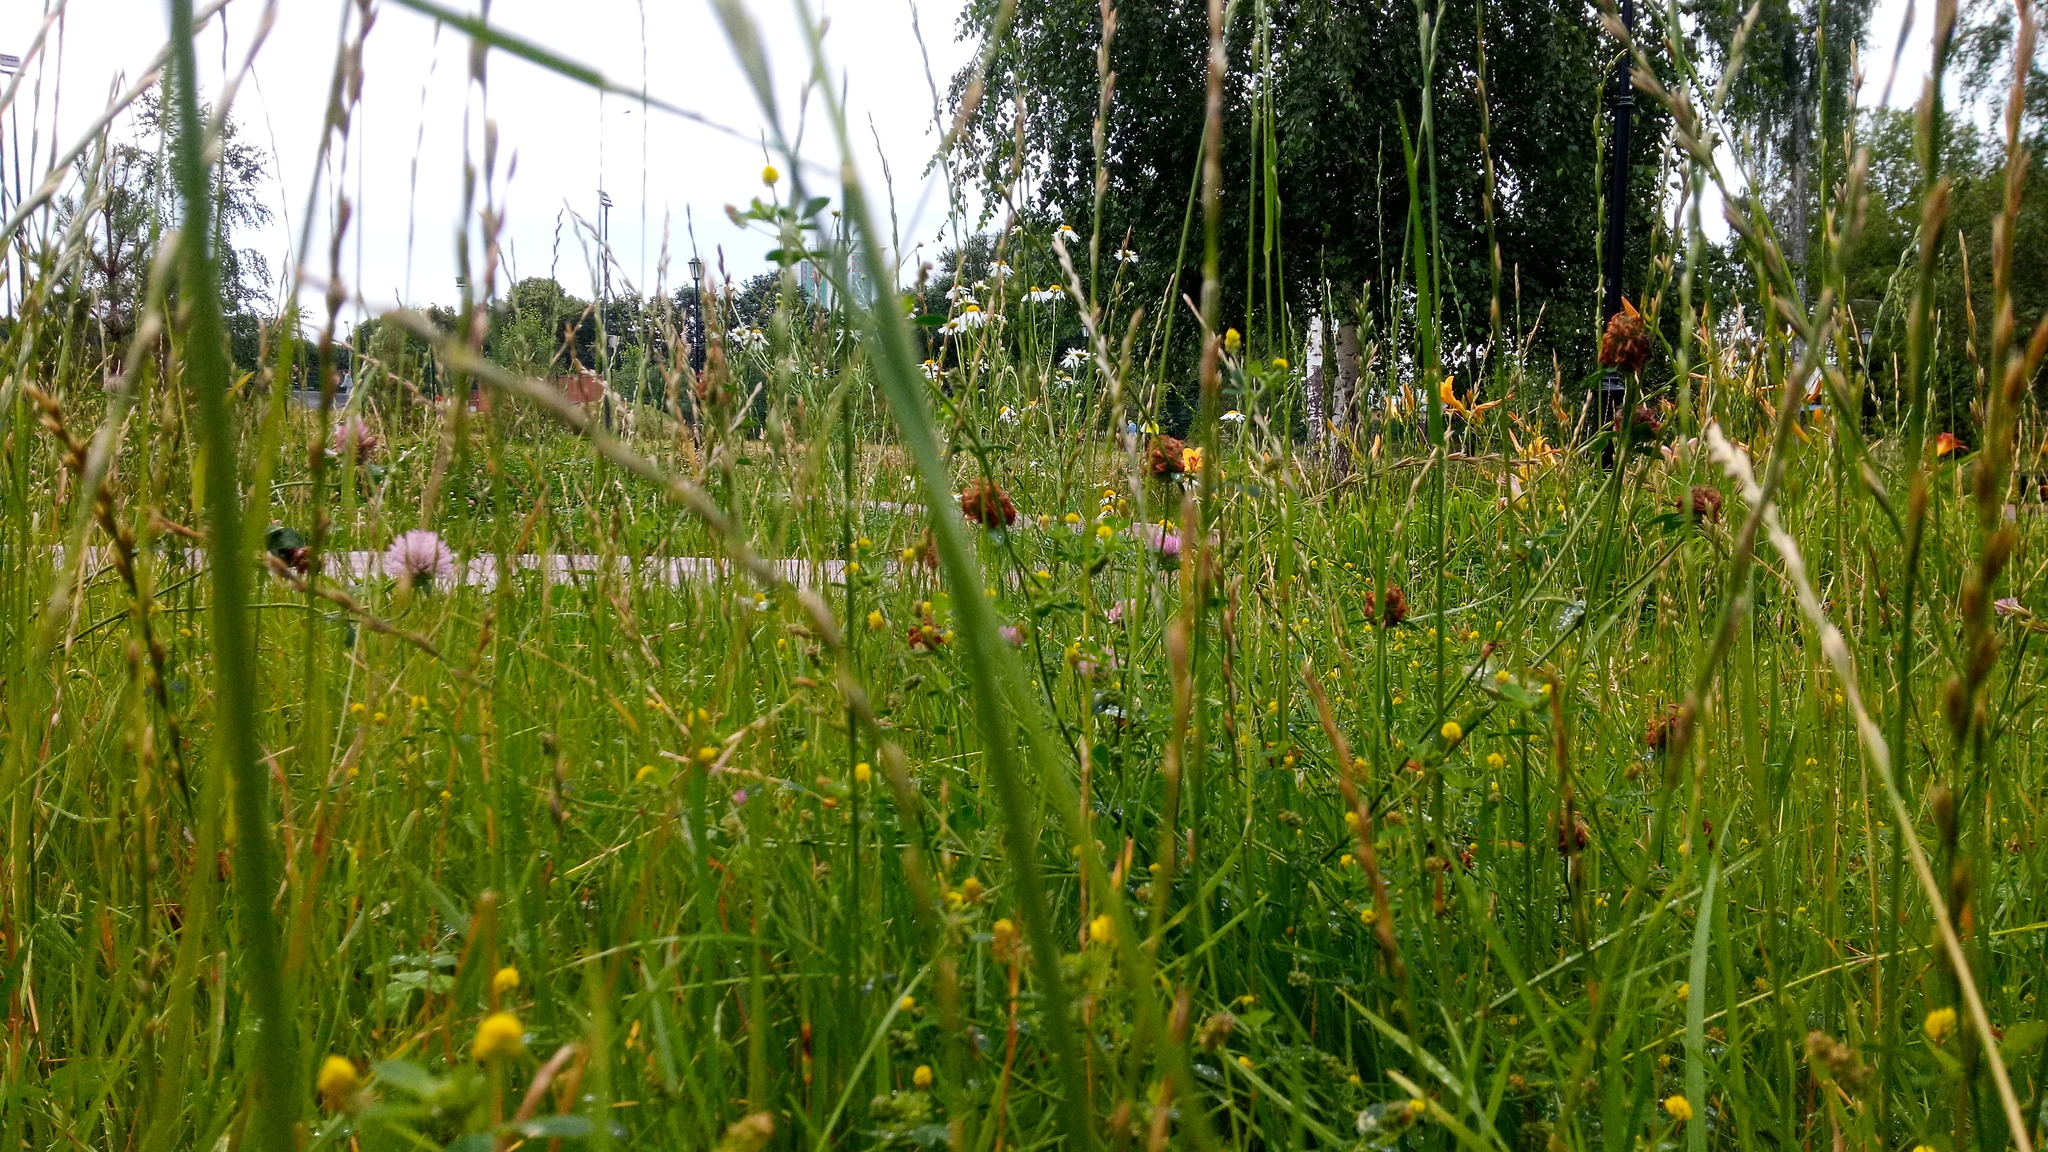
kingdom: Plantae
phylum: Tracheophyta
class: Magnoliopsida
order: Fabales
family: Fabaceae
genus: Medicago
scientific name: Medicago lupulina
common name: Black medick
